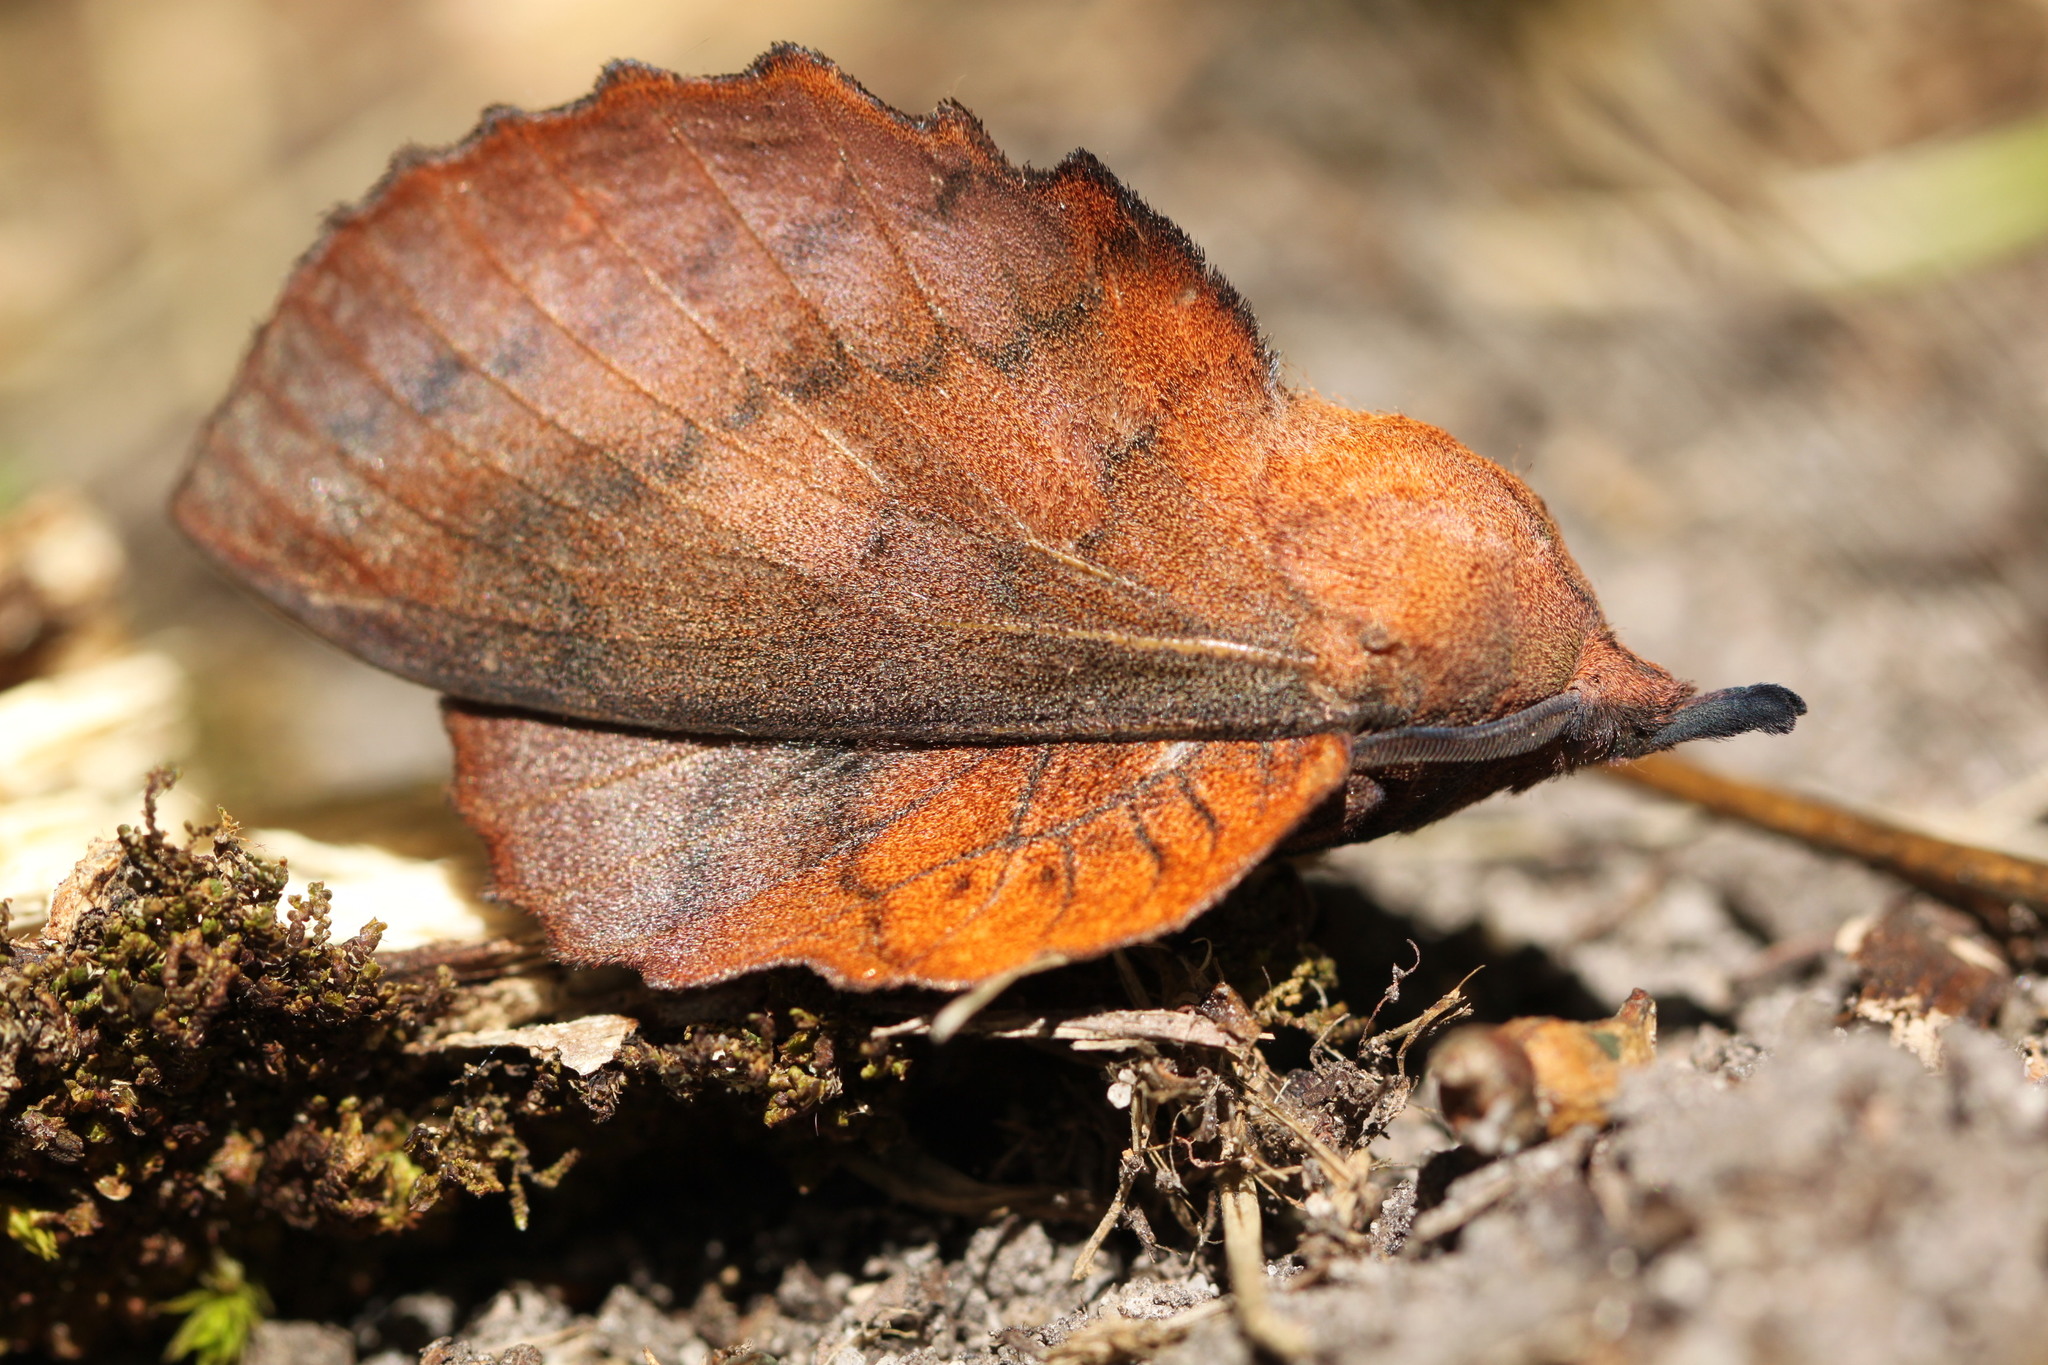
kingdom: Animalia
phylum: Arthropoda
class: Insecta
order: Lepidoptera
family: Lasiocampidae
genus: Gastropacha
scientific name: Gastropacha quercifolia
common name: Lappet
